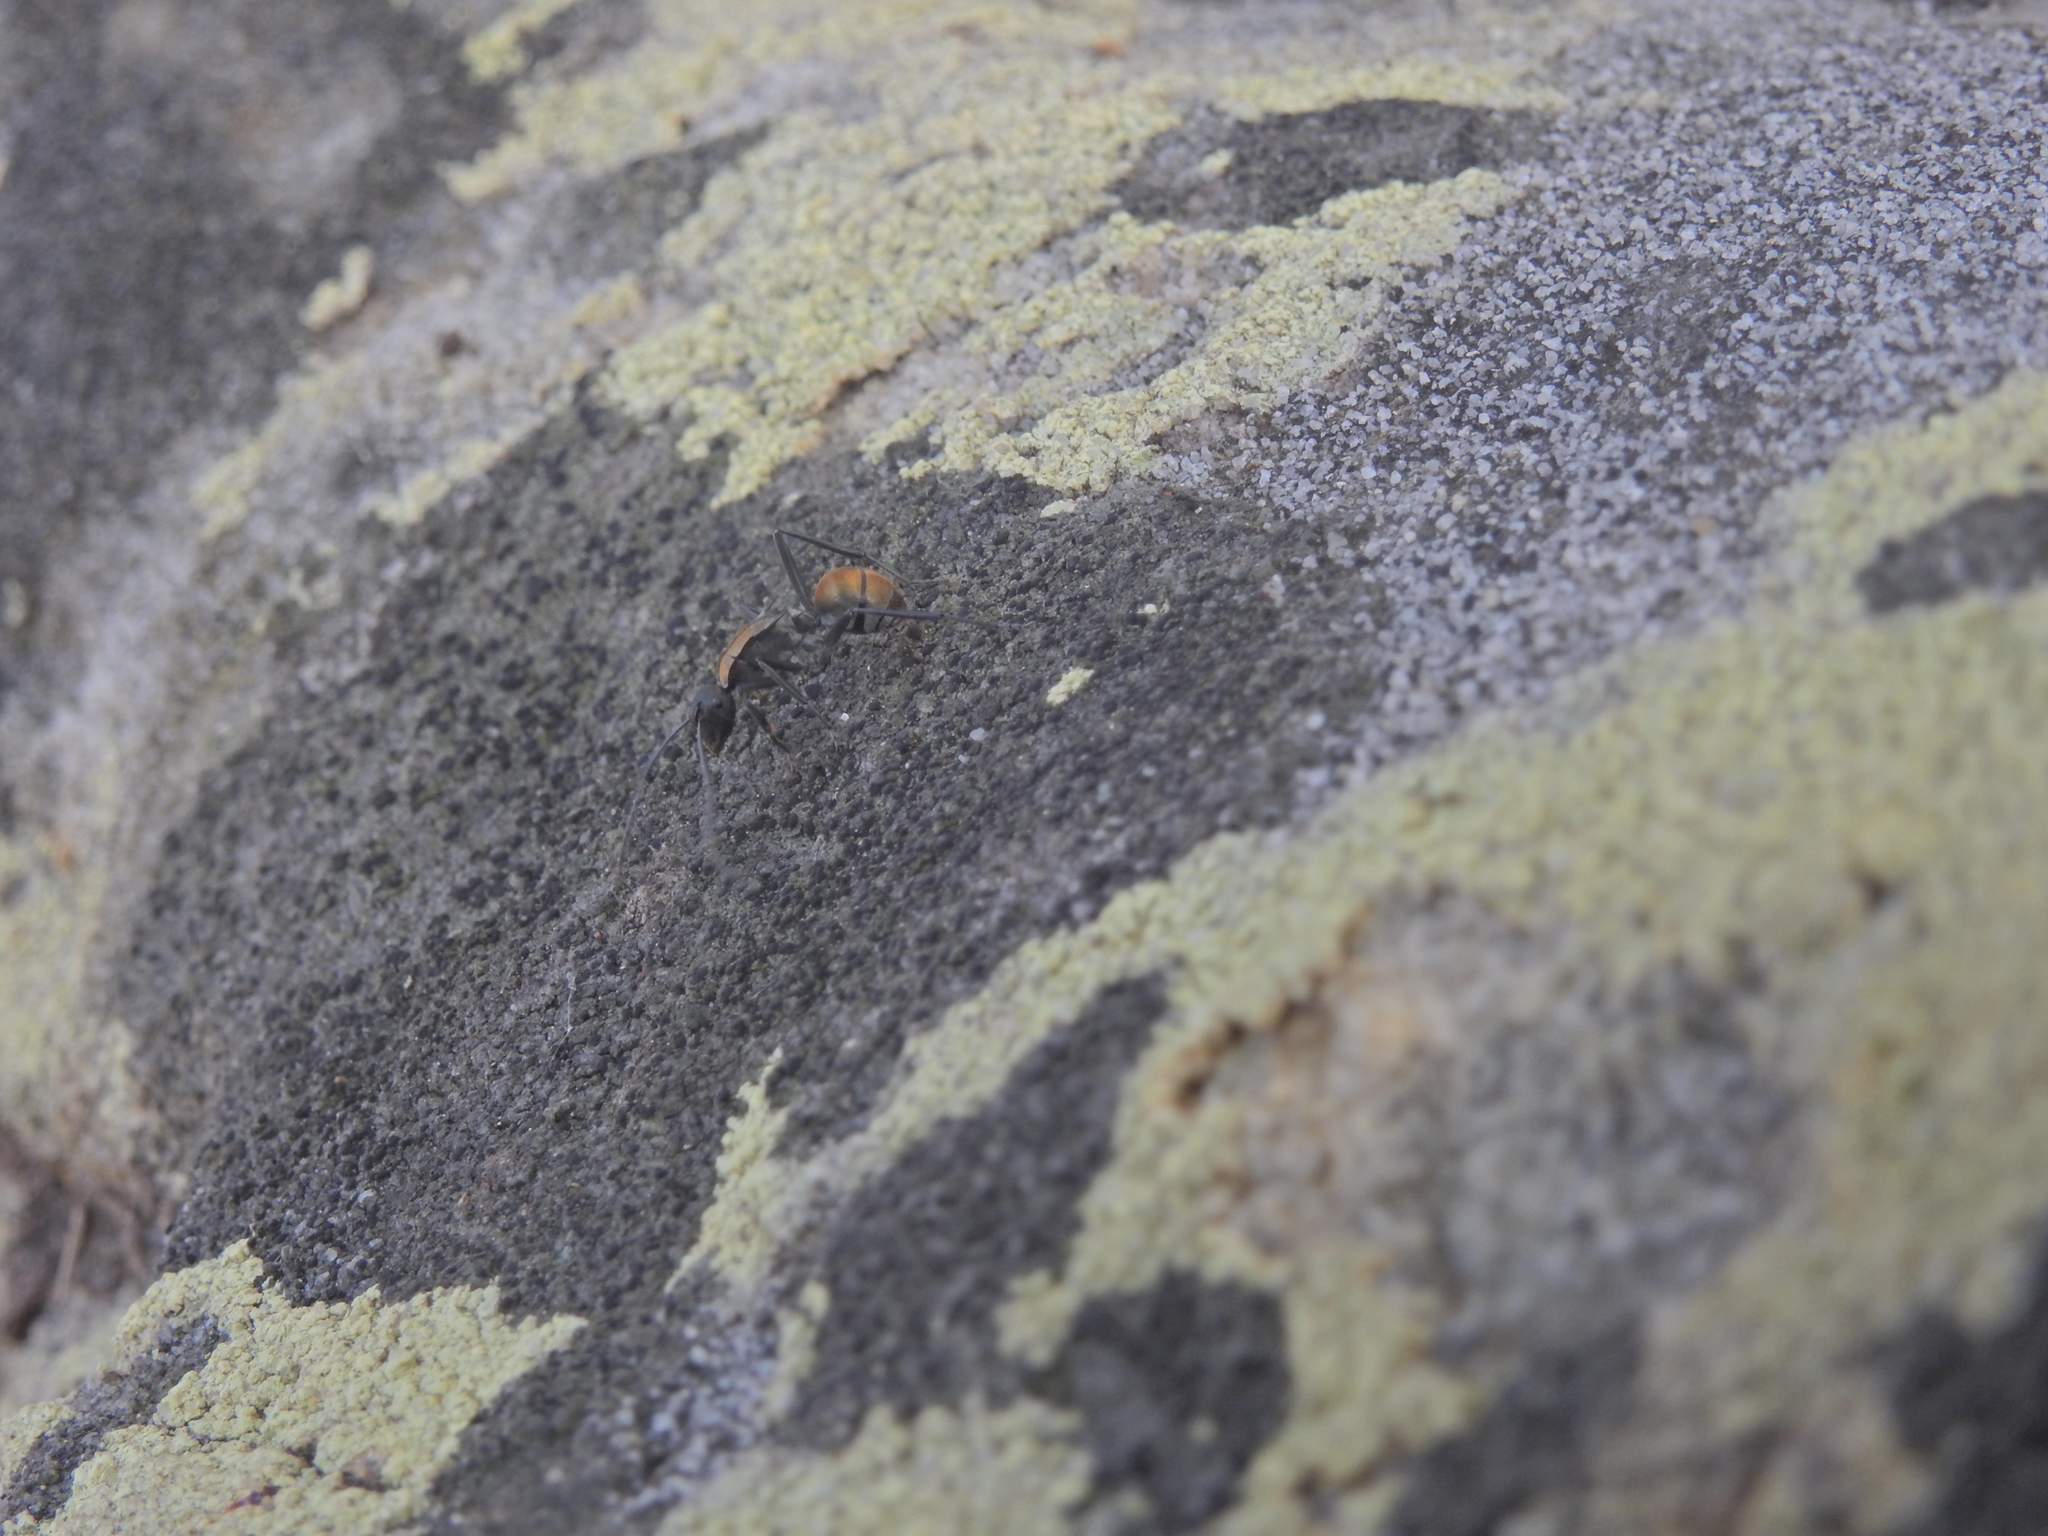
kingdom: Animalia
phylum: Arthropoda
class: Insecta
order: Hymenoptera
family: Formicidae
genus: Polyrhachis
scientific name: Polyrhachis ammon
